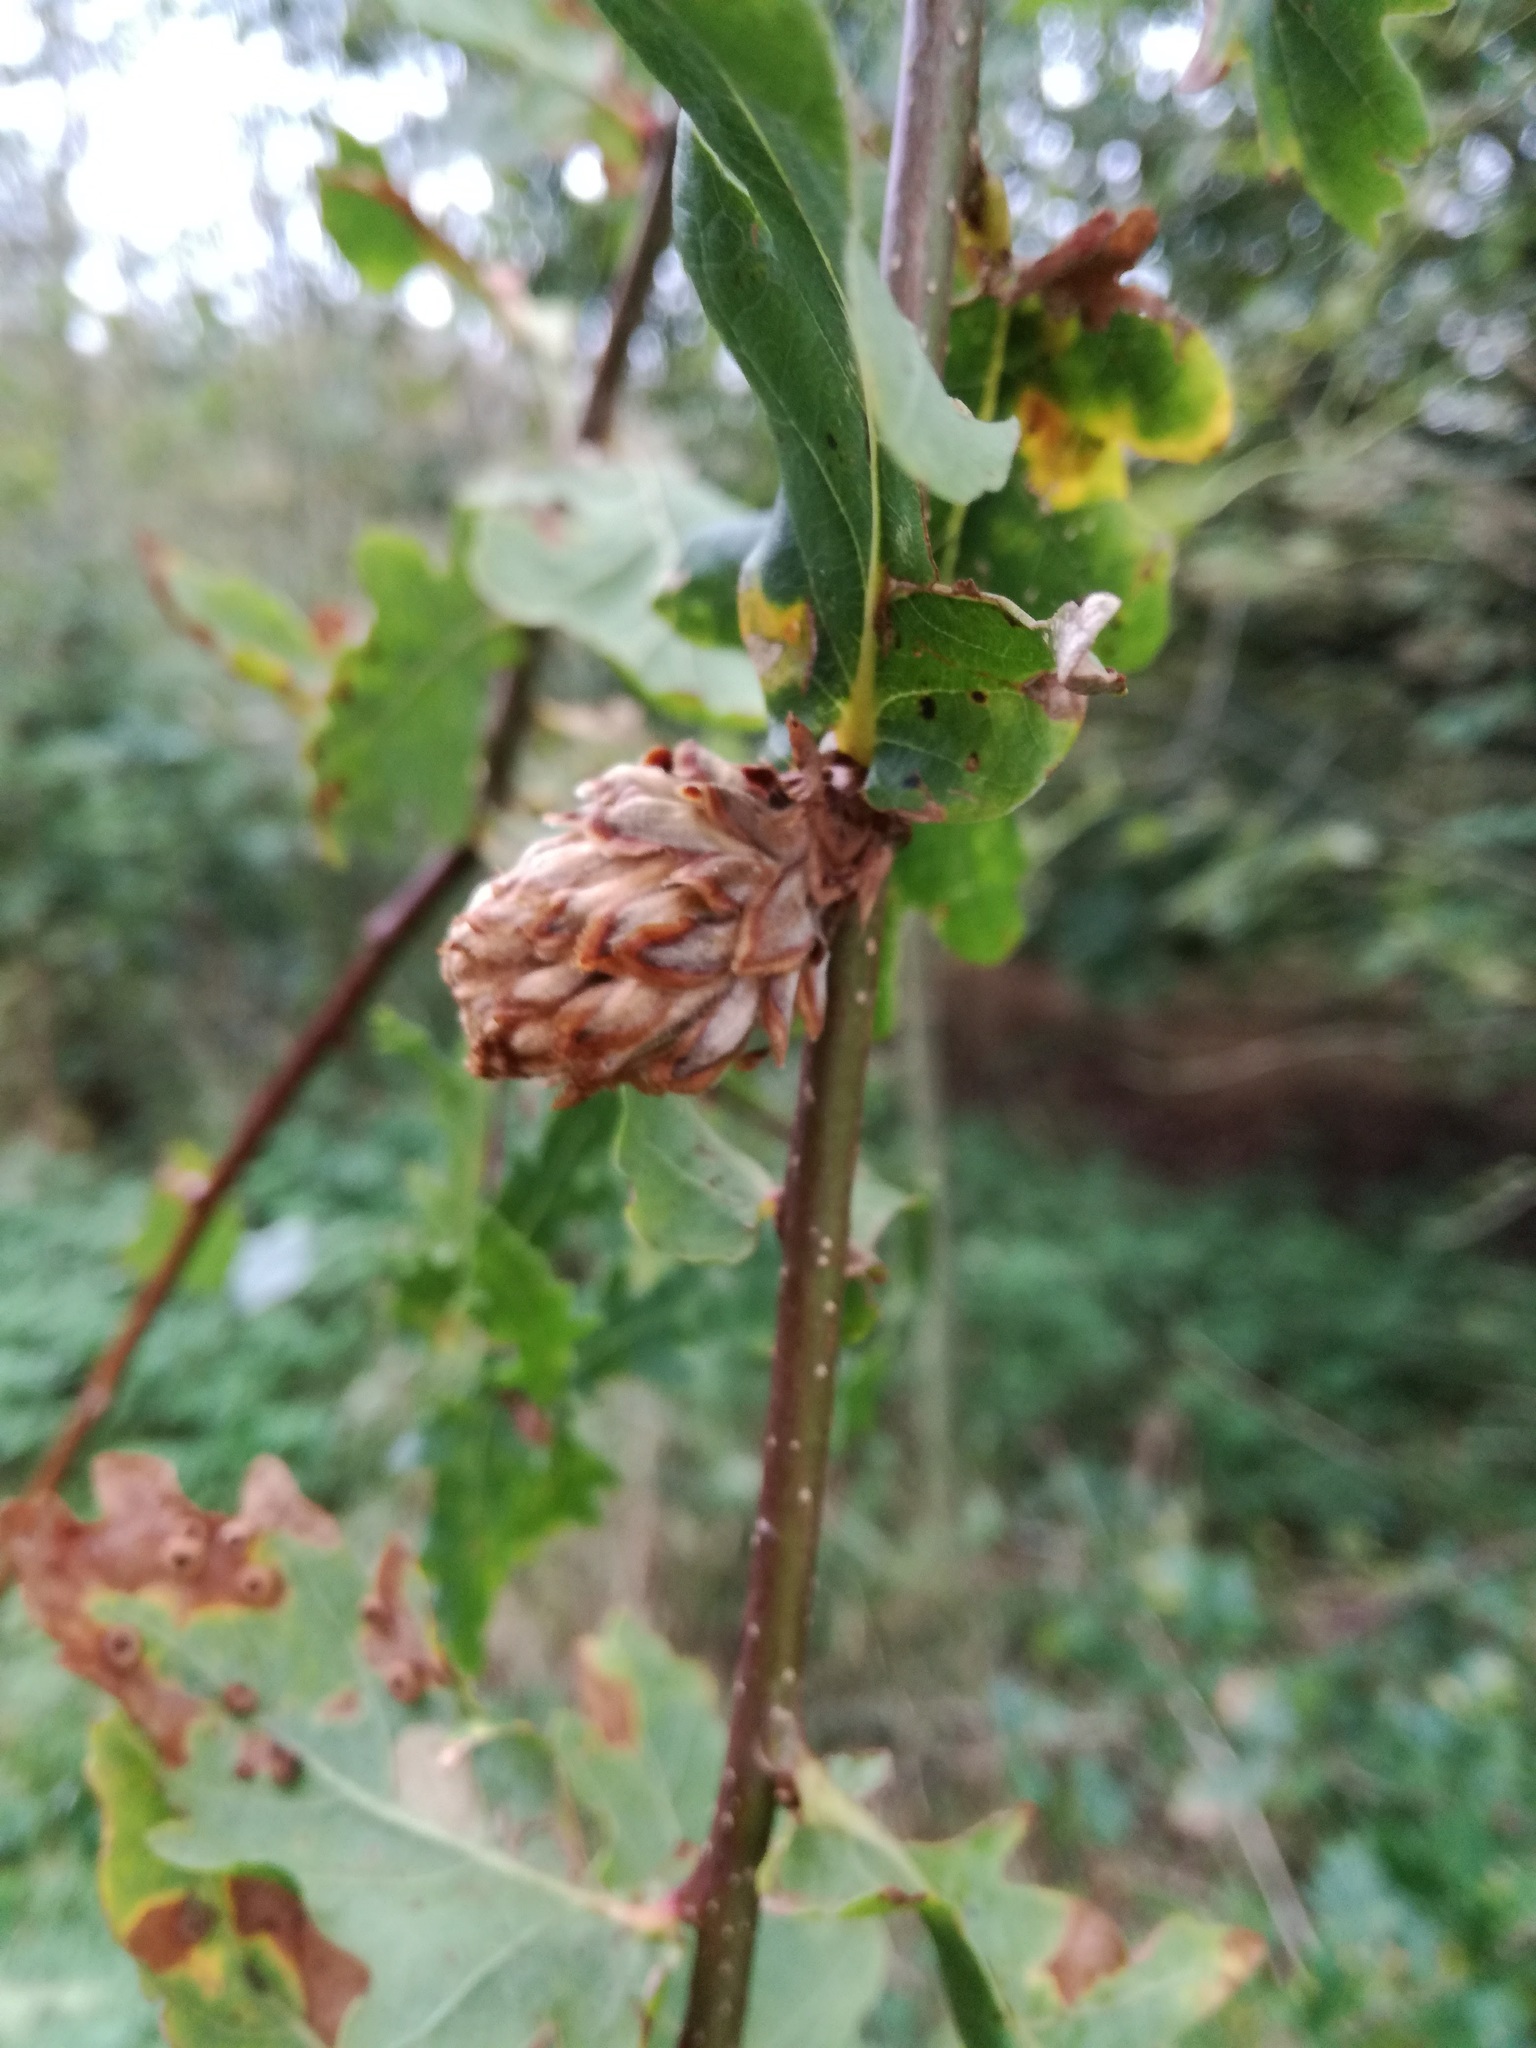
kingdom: Animalia
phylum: Arthropoda
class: Insecta
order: Hymenoptera
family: Cynipidae
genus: Andricus
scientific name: Andricus foecundatrix
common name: Artichoke gall
